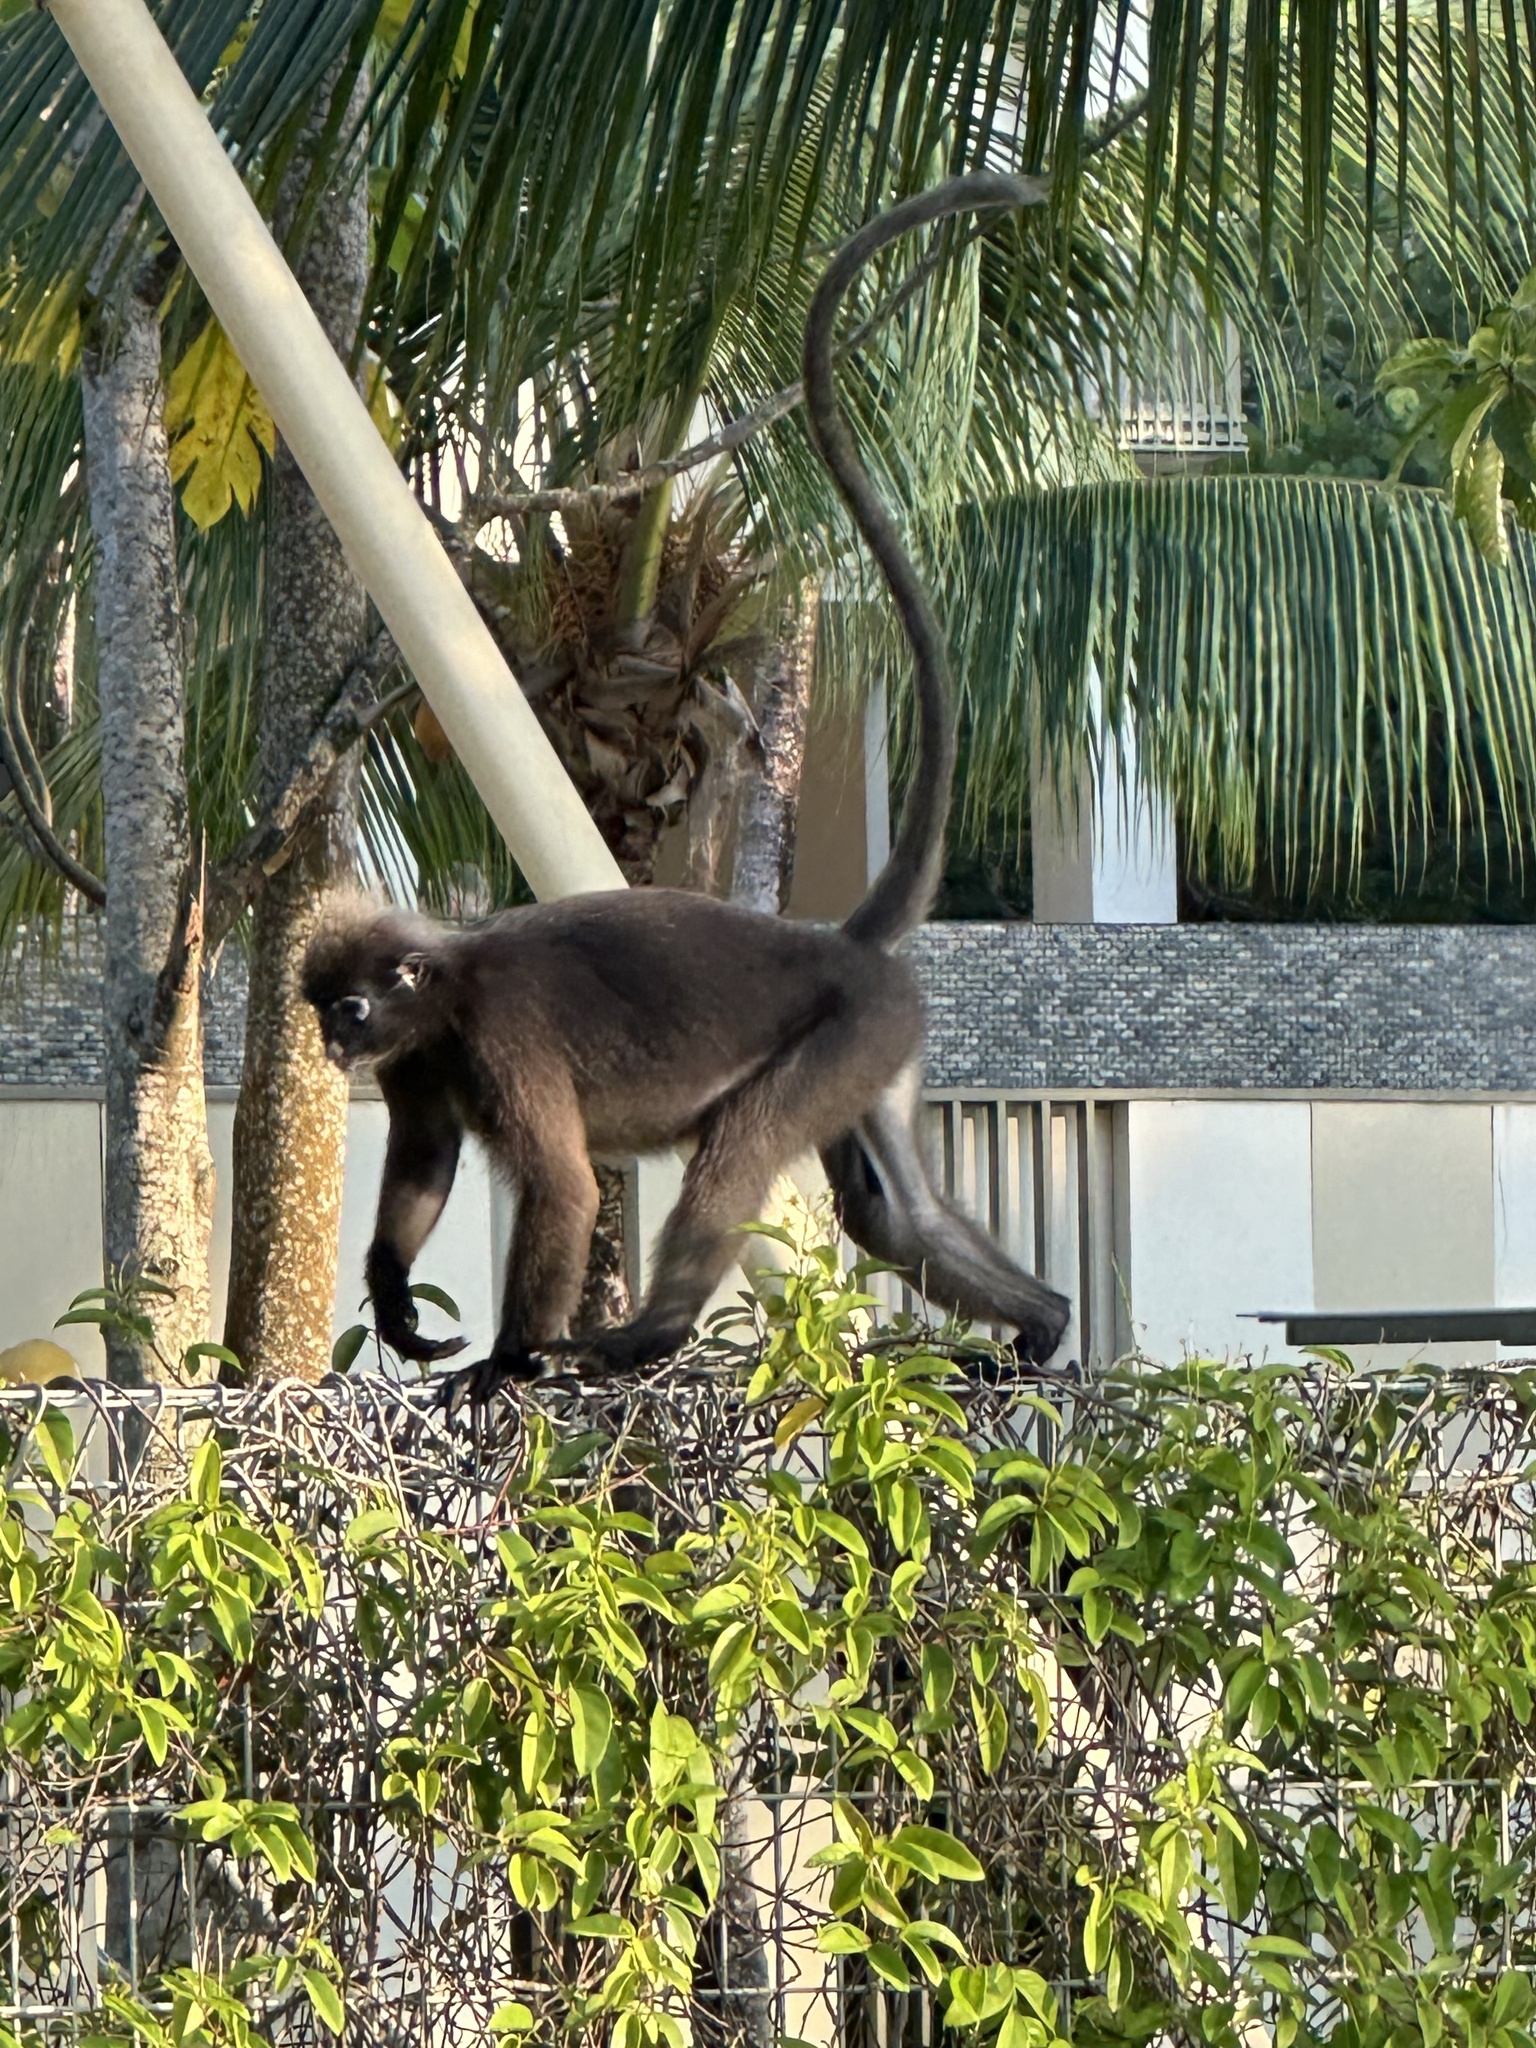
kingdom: Animalia
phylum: Chordata
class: Mammalia
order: Primates
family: Cercopithecidae
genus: Trachypithecus
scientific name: Trachypithecus obscurus
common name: Dusky leaf-monkey
